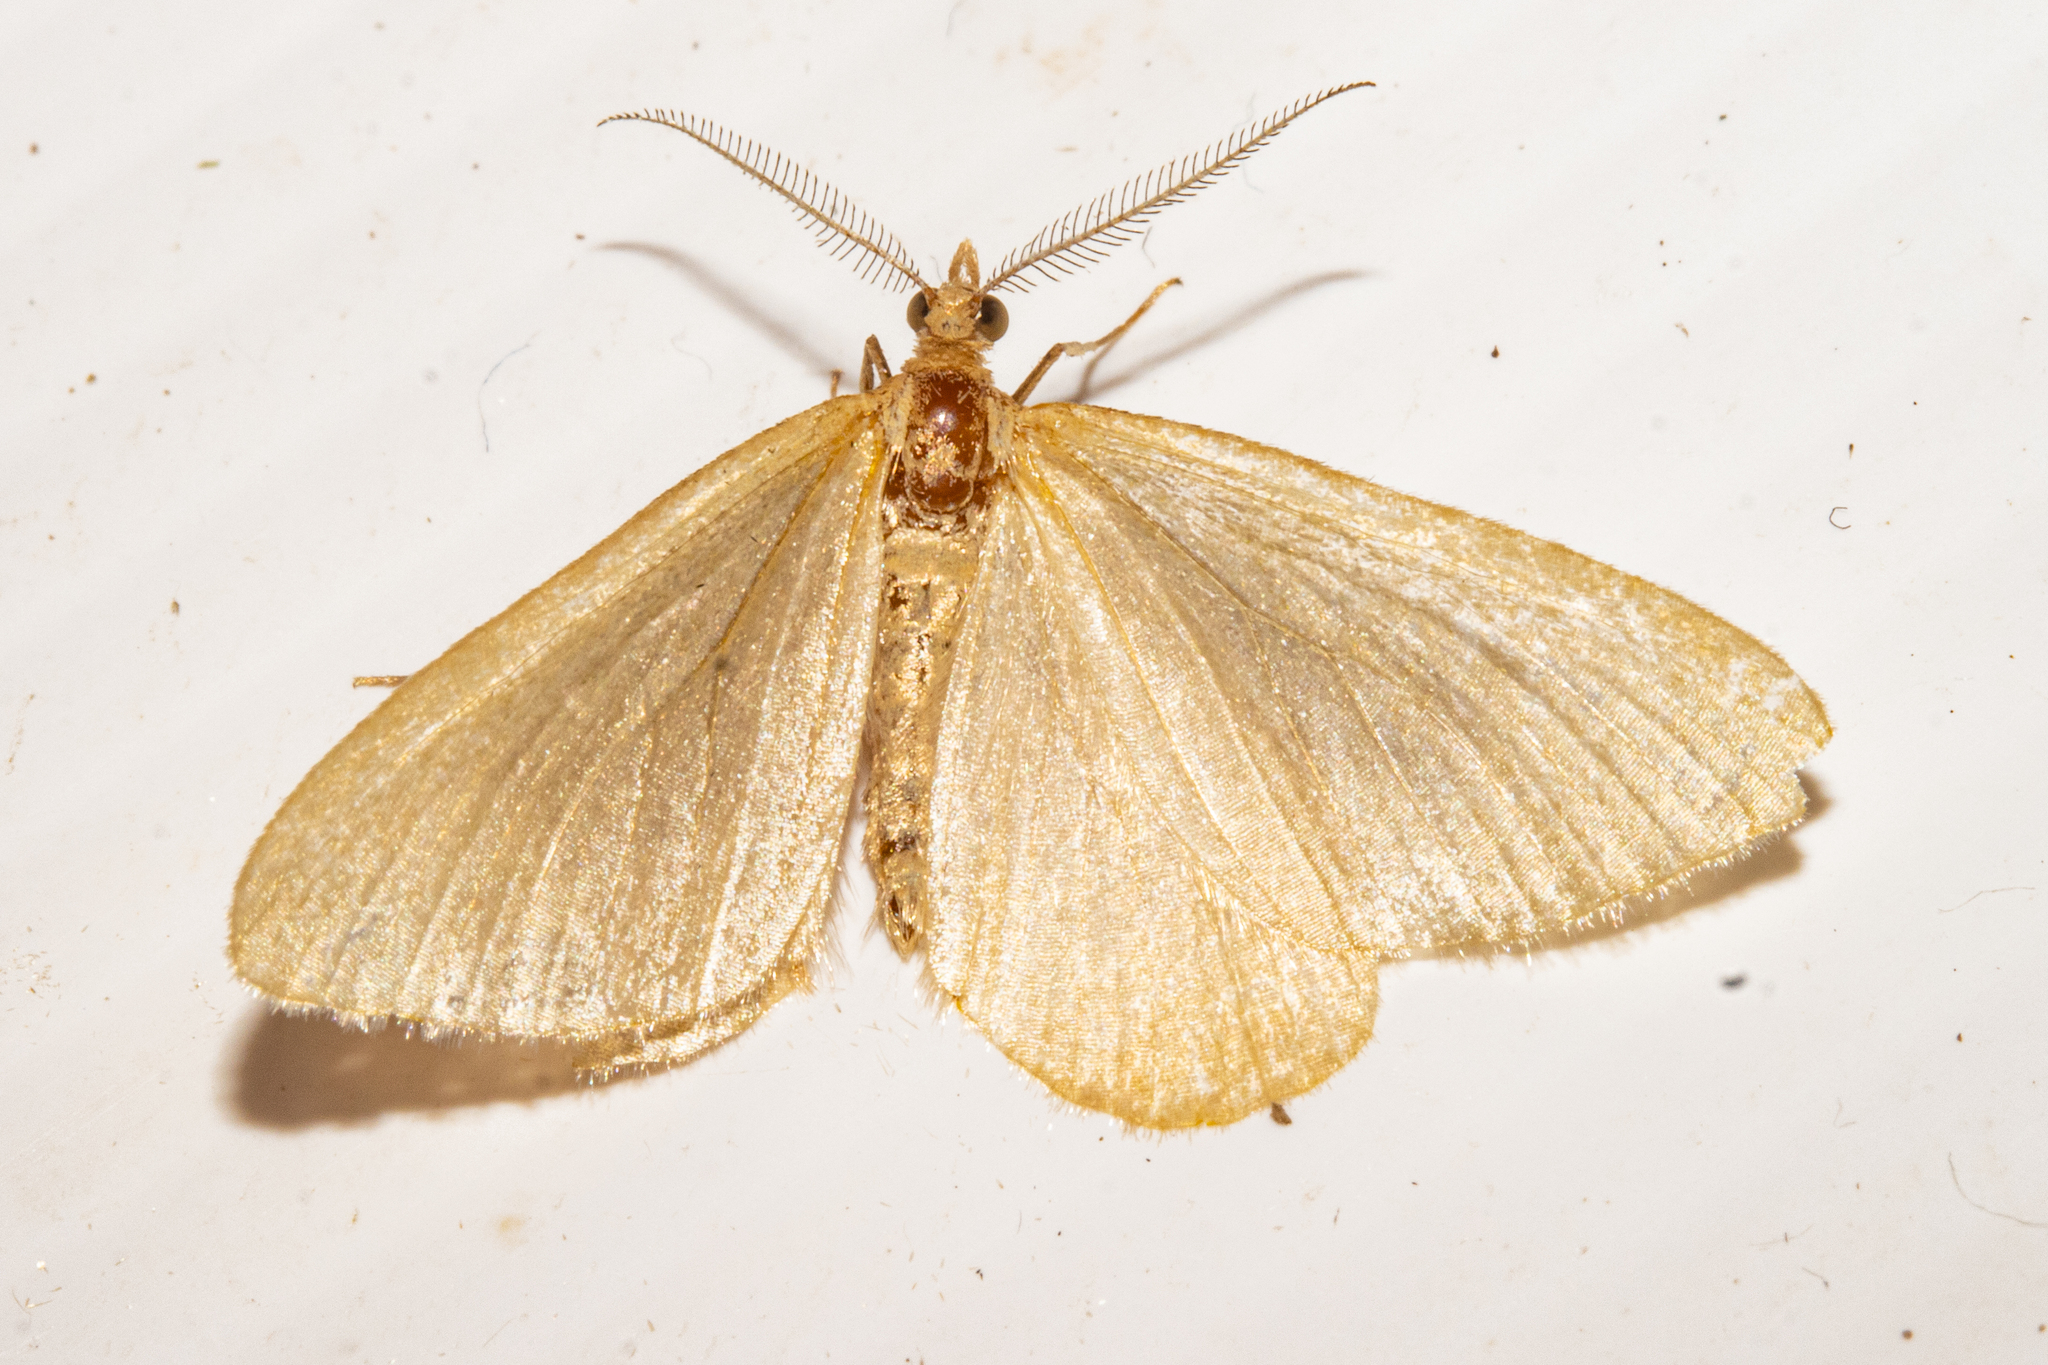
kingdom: Animalia
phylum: Arthropoda
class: Insecta
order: Lepidoptera
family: Geometridae
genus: Asaphodes
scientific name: Asaphodes oraria
